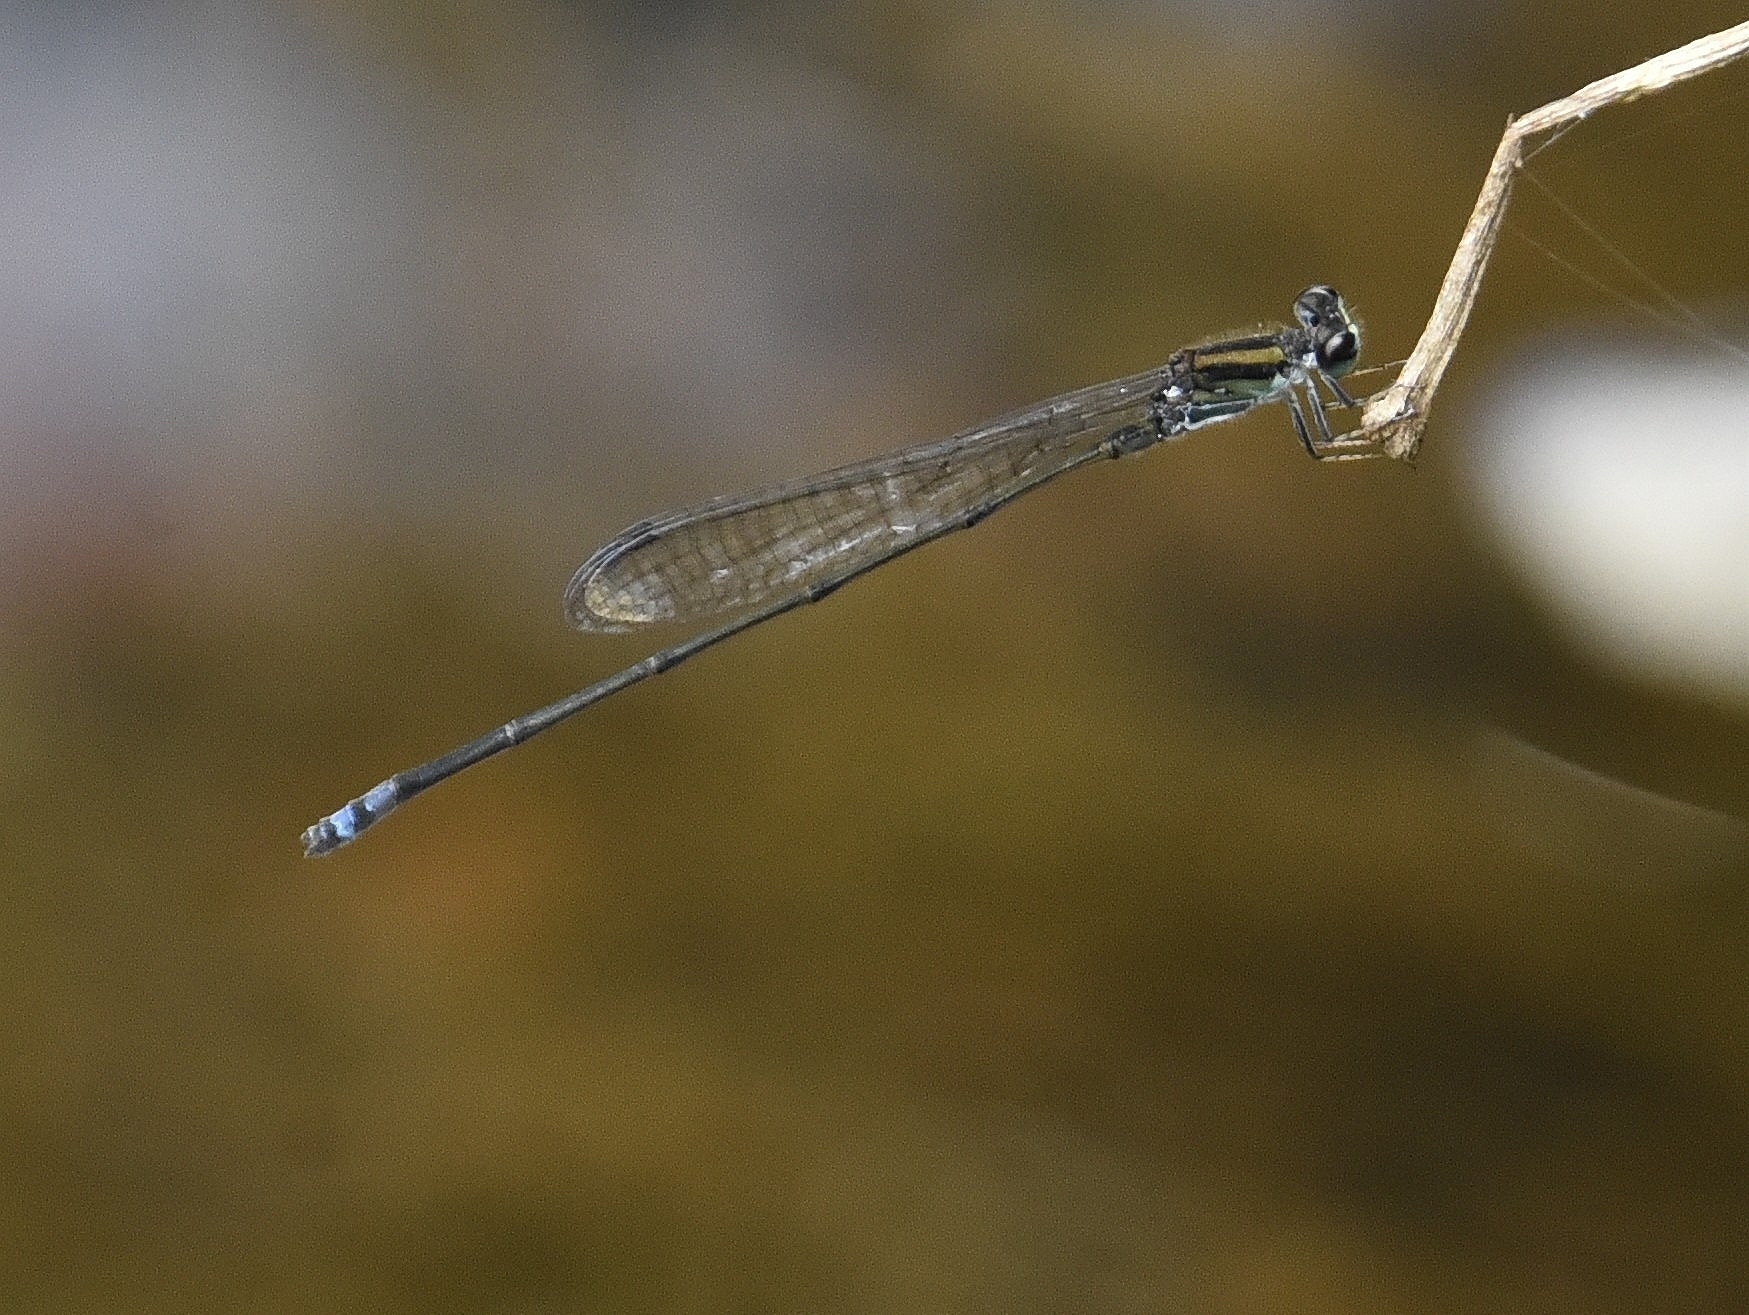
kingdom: Animalia
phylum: Arthropoda
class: Insecta
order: Odonata
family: Coenagrionidae
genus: Pseudagrion
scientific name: Pseudagrion indicum
